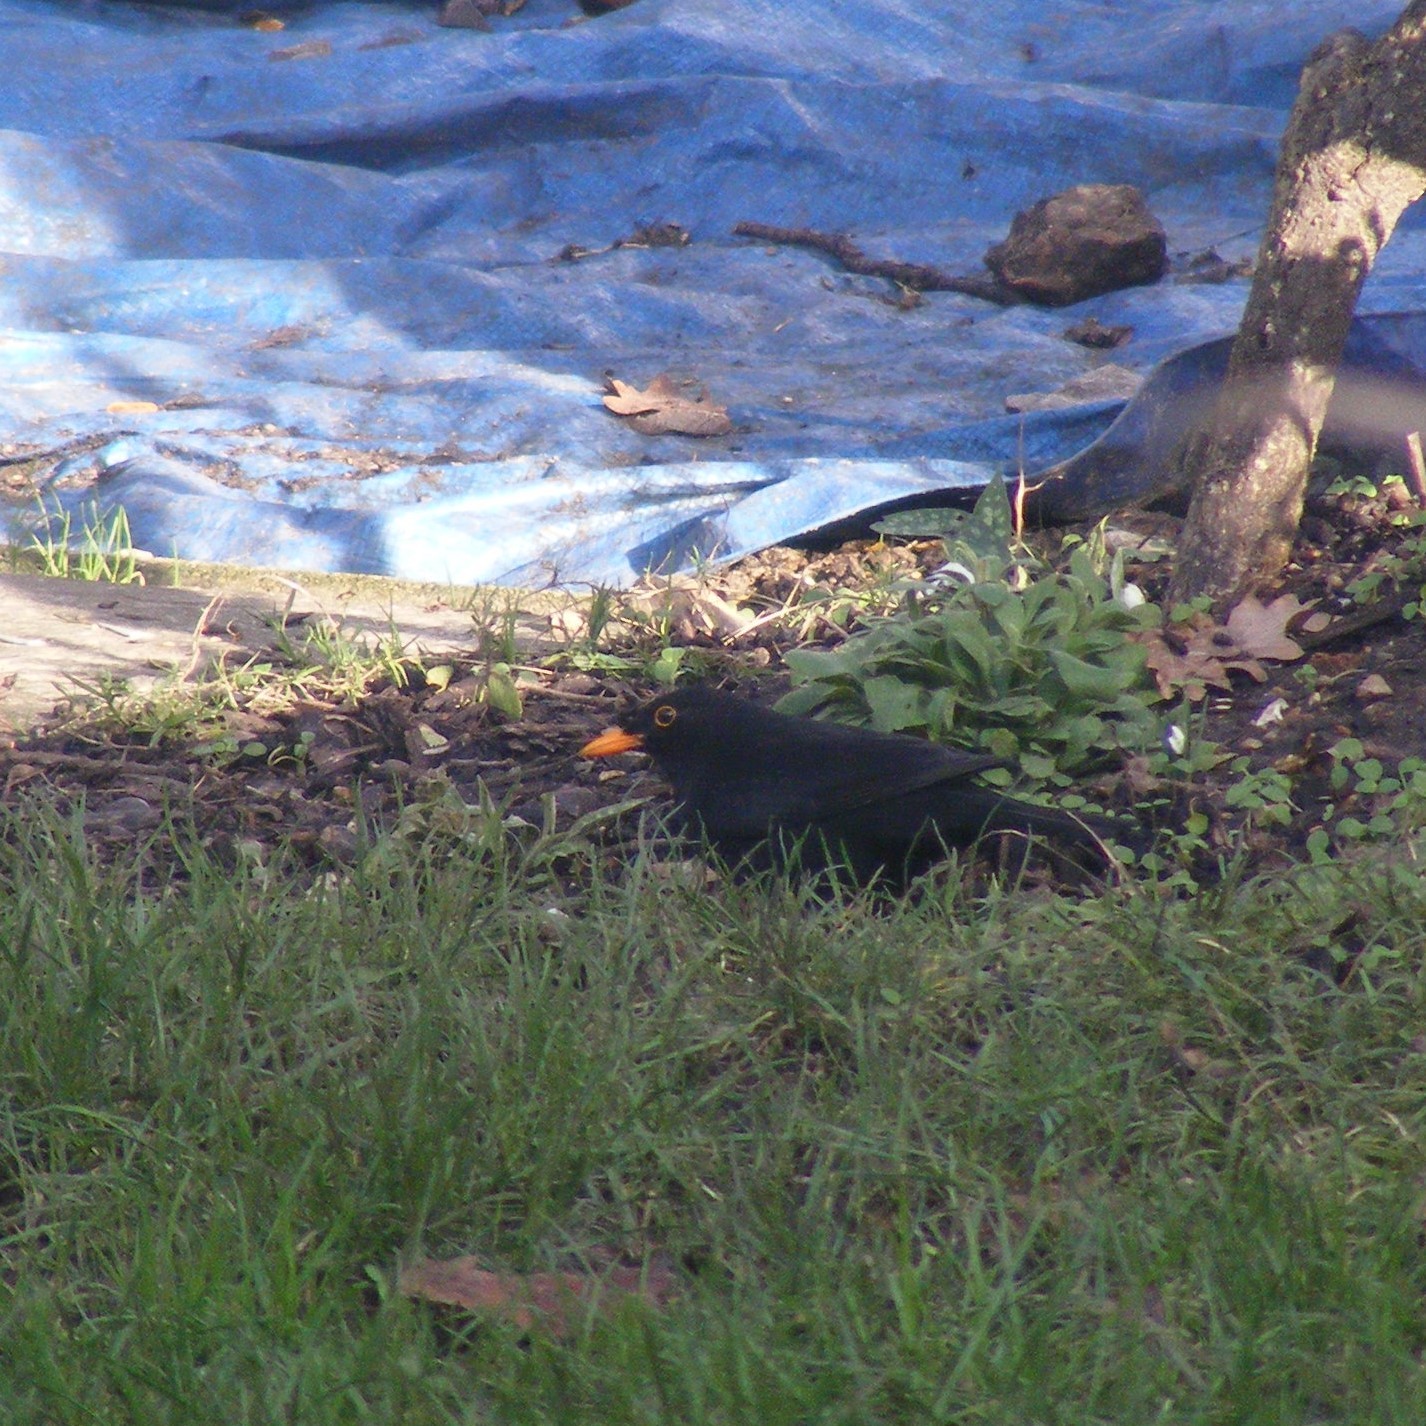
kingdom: Animalia
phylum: Chordata
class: Aves
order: Passeriformes
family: Turdidae
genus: Turdus
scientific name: Turdus merula
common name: Common blackbird
